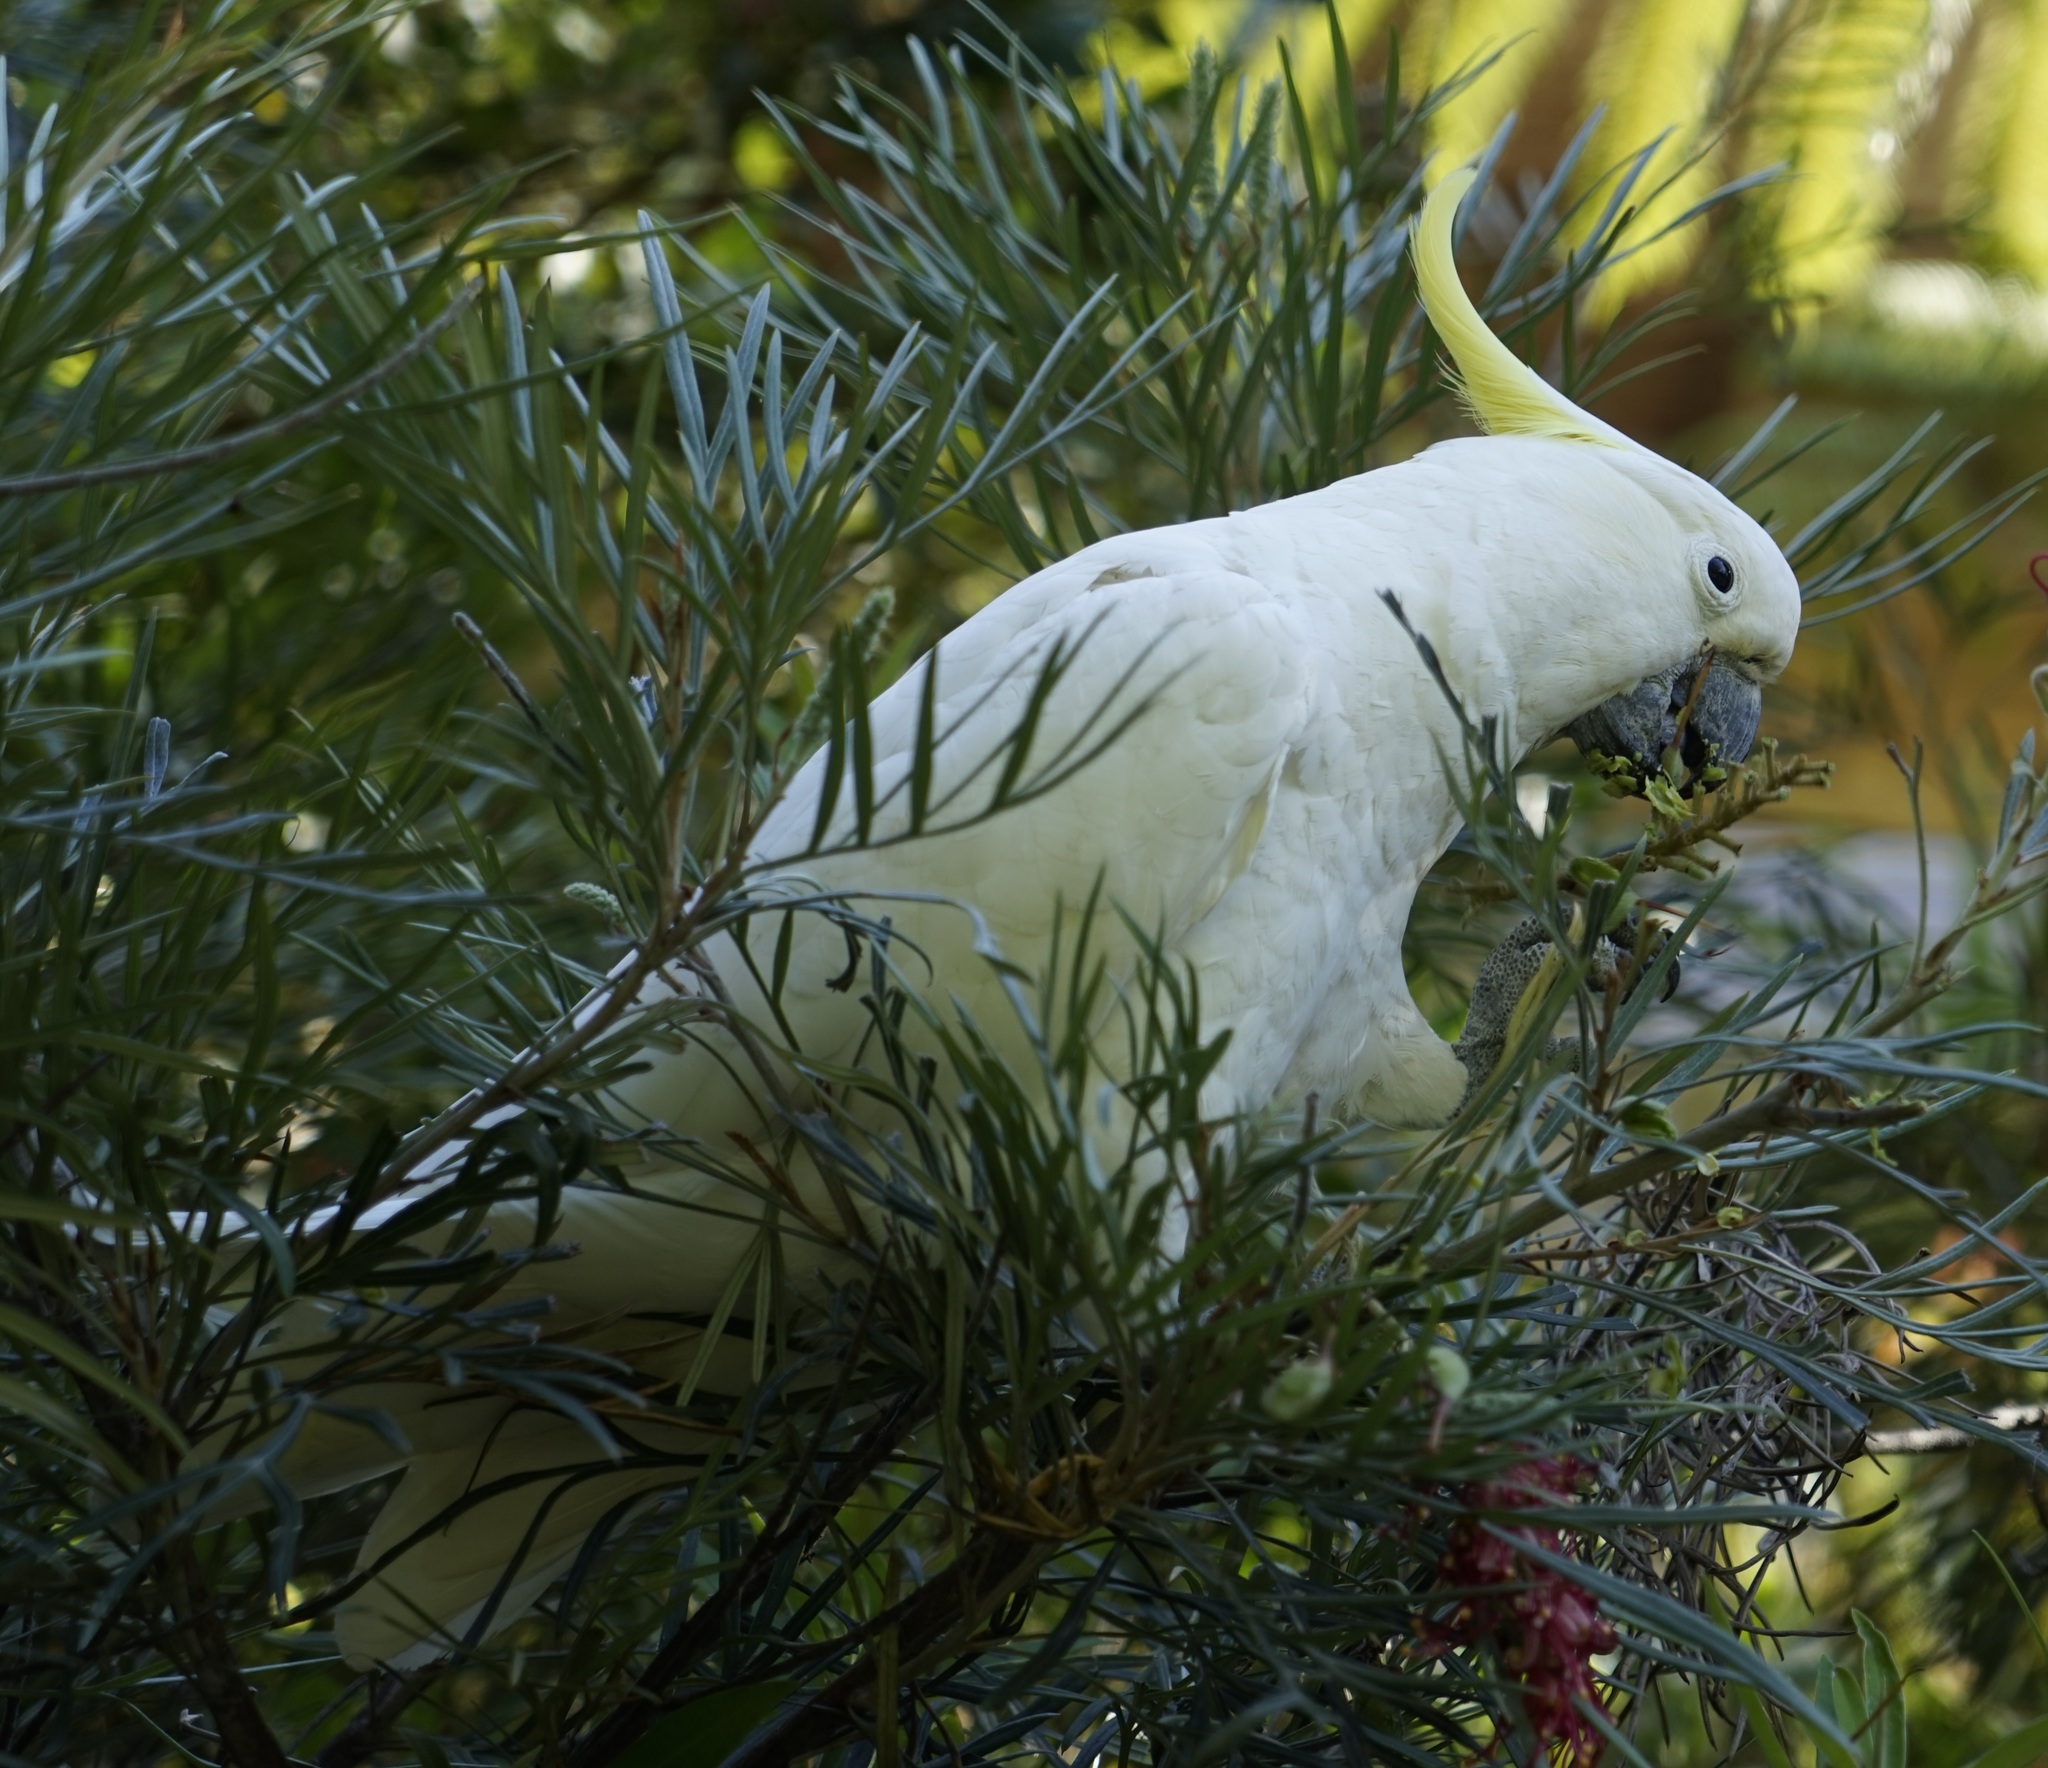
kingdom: Animalia
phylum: Chordata
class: Aves
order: Psittaciformes
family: Psittacidae
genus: Cacatua
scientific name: Cacatua galerita
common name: Sulphur-crested cockatoo
